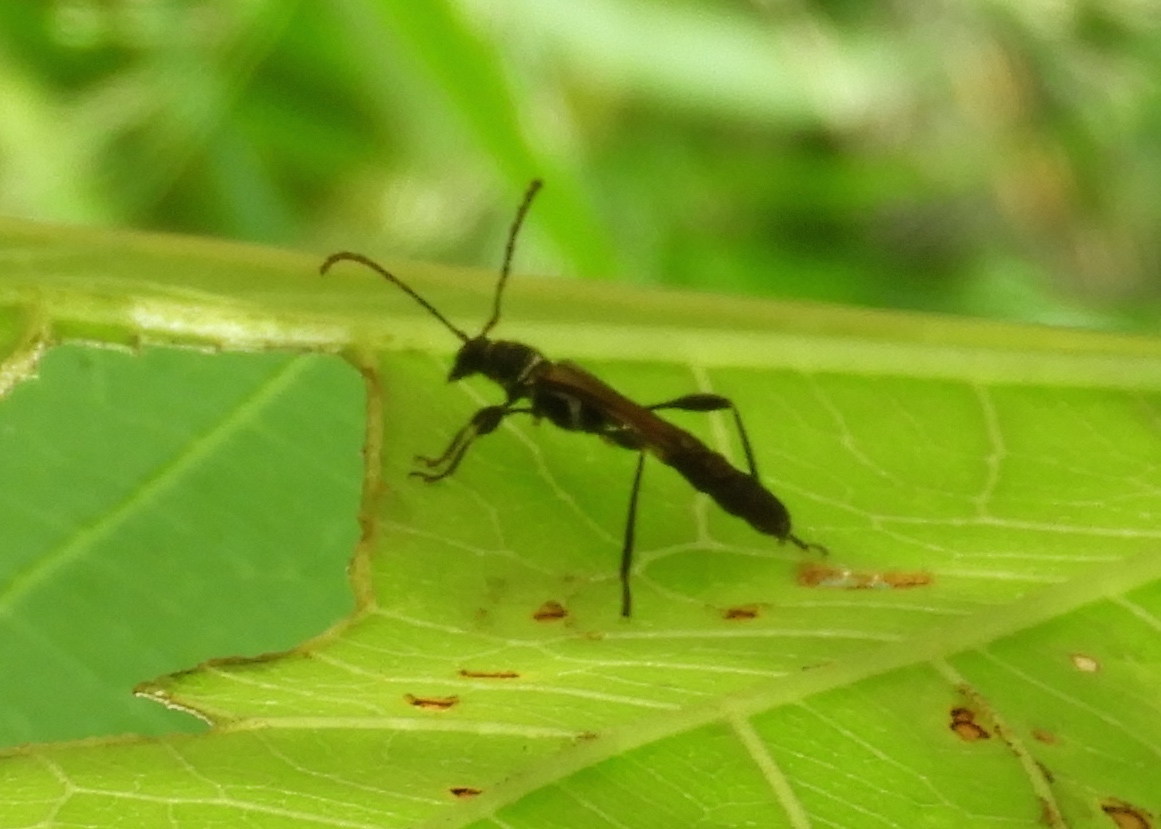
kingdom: Animalia
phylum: Arthropoda
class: Insecta
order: Coleoptera
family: Cerambycidae
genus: Odontocera
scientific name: Odontocera aurocincta
